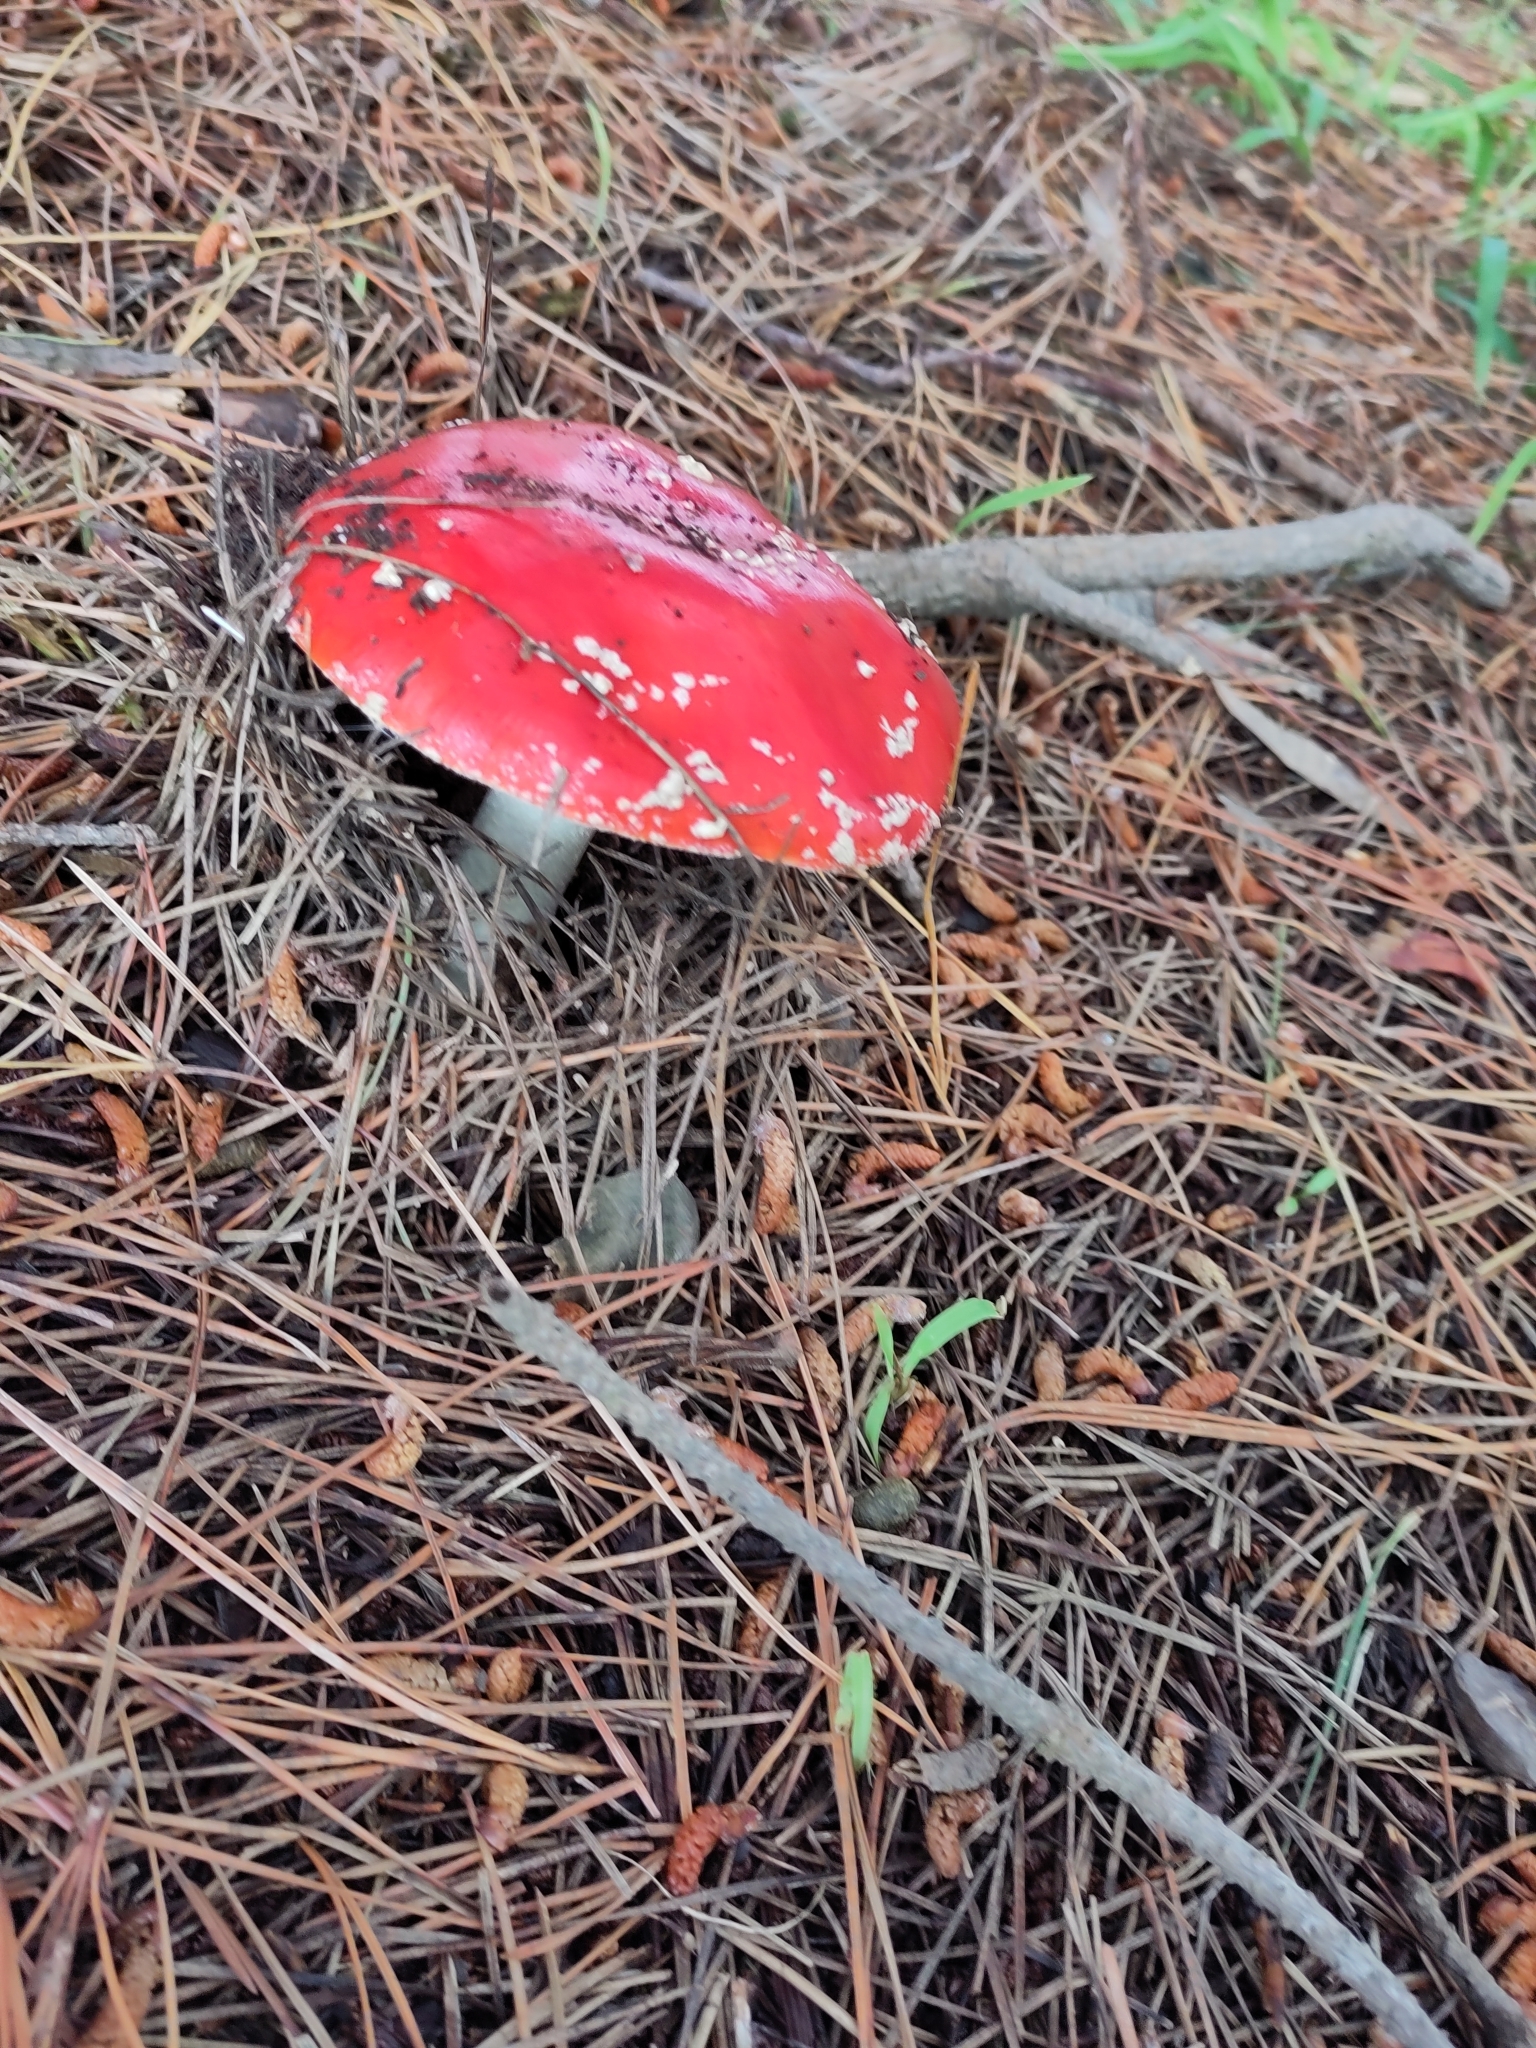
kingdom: Fungi
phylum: Basidiomycota
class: Agaricomycetes
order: Agaricales
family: Amanitaceae
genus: Amanita
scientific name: Amanita muscaria
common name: Fly agaric
